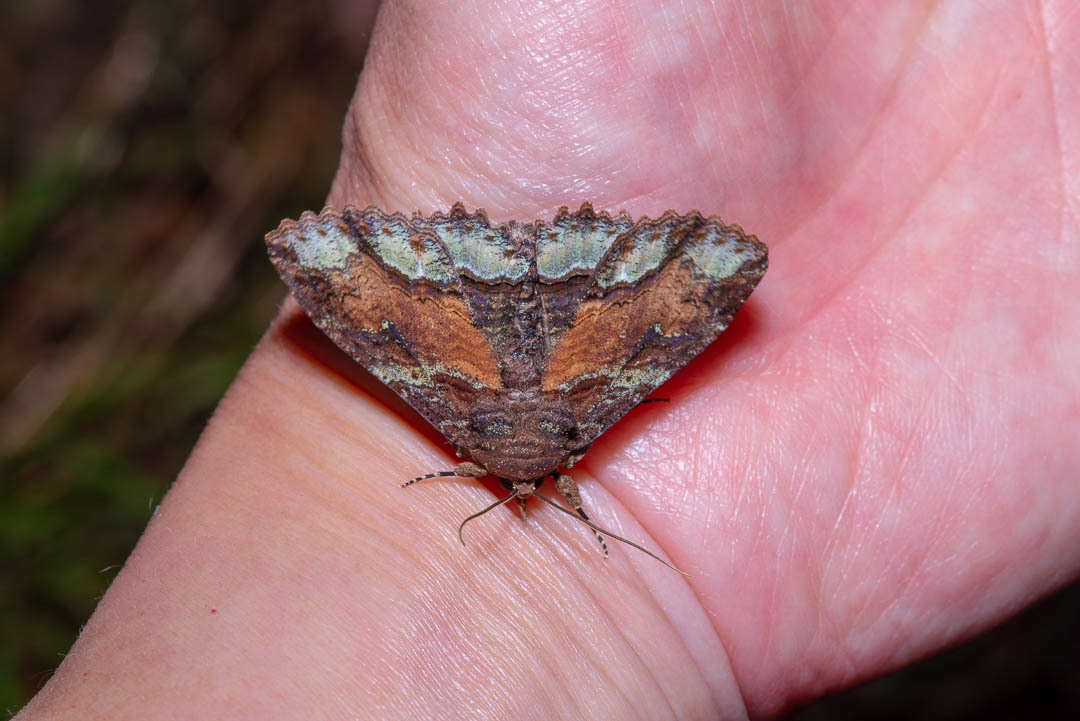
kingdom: Animalia
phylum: Arthropoda
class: Insecta
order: Lepidoptera
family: Erebidae
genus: Zale
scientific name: Zale lunata
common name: Lunate zale moth
